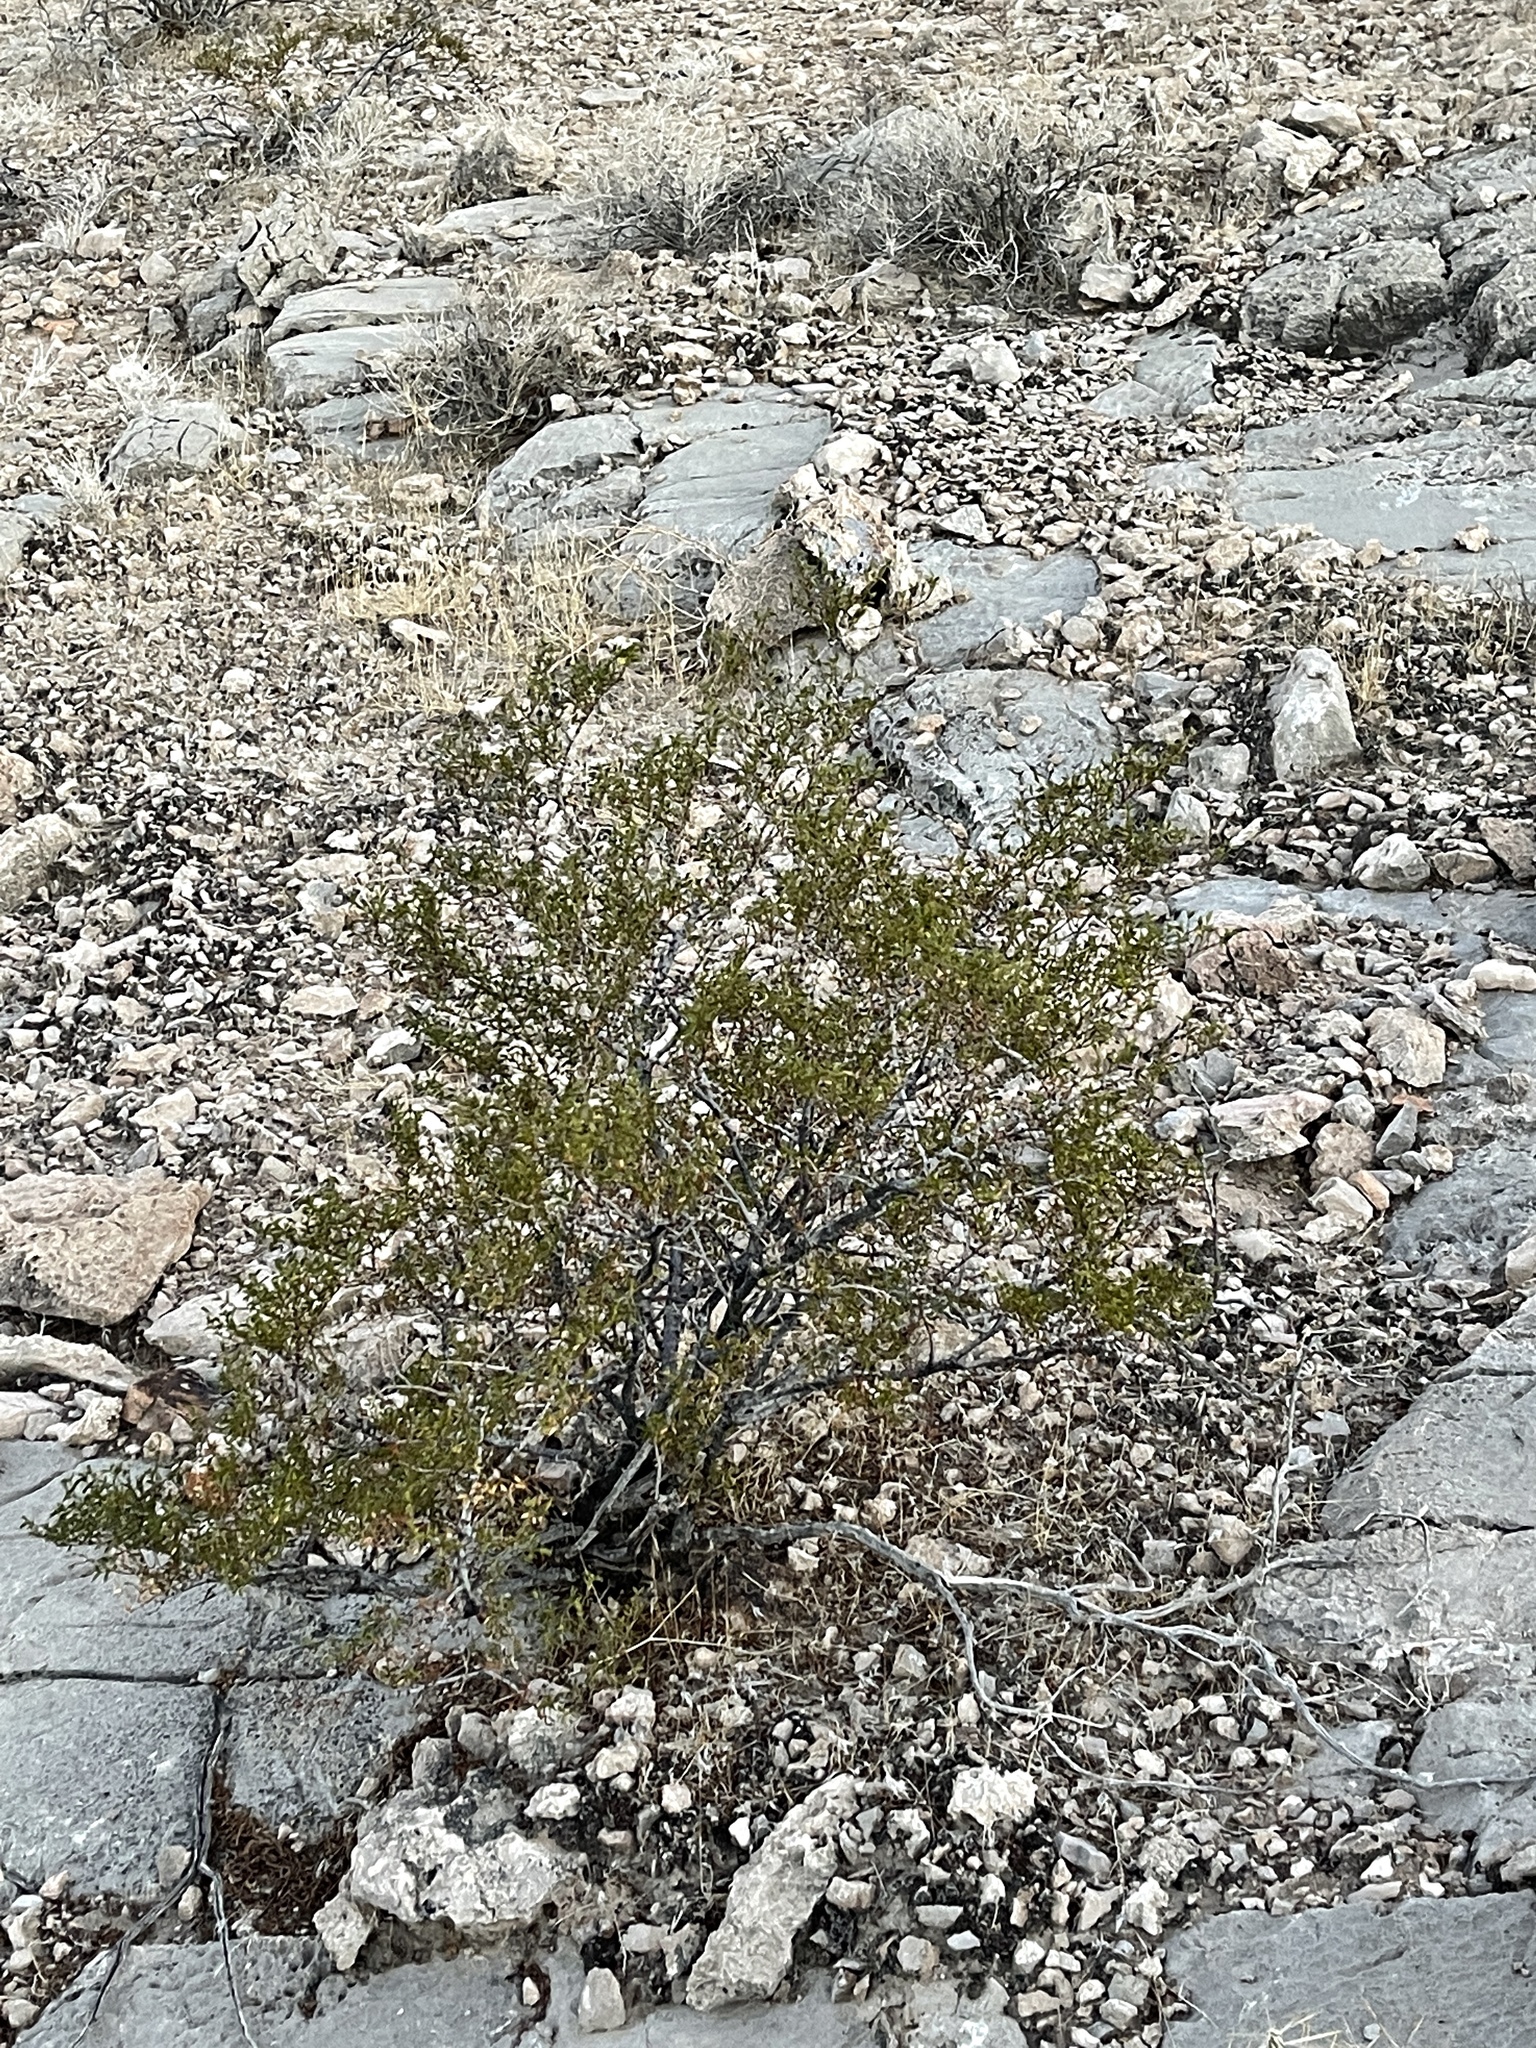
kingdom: Plantae
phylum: Tracheophyta
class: Magnoliopsida
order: Zygophyllales
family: Zygophyllaceae
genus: Larrea
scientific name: Larrea tridentata
